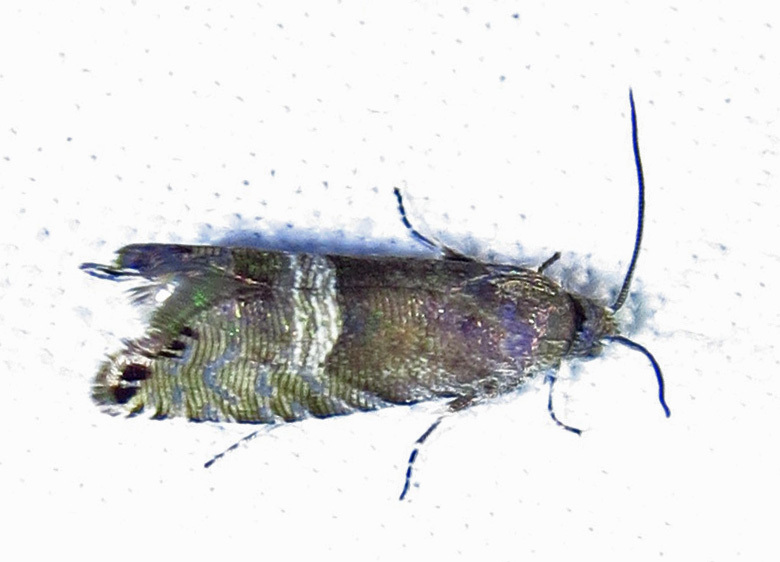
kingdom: Animalia
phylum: Arthropoda
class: Insecta
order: Lepidoptera
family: Tortricidae
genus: Sereda
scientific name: Sereda tautana
